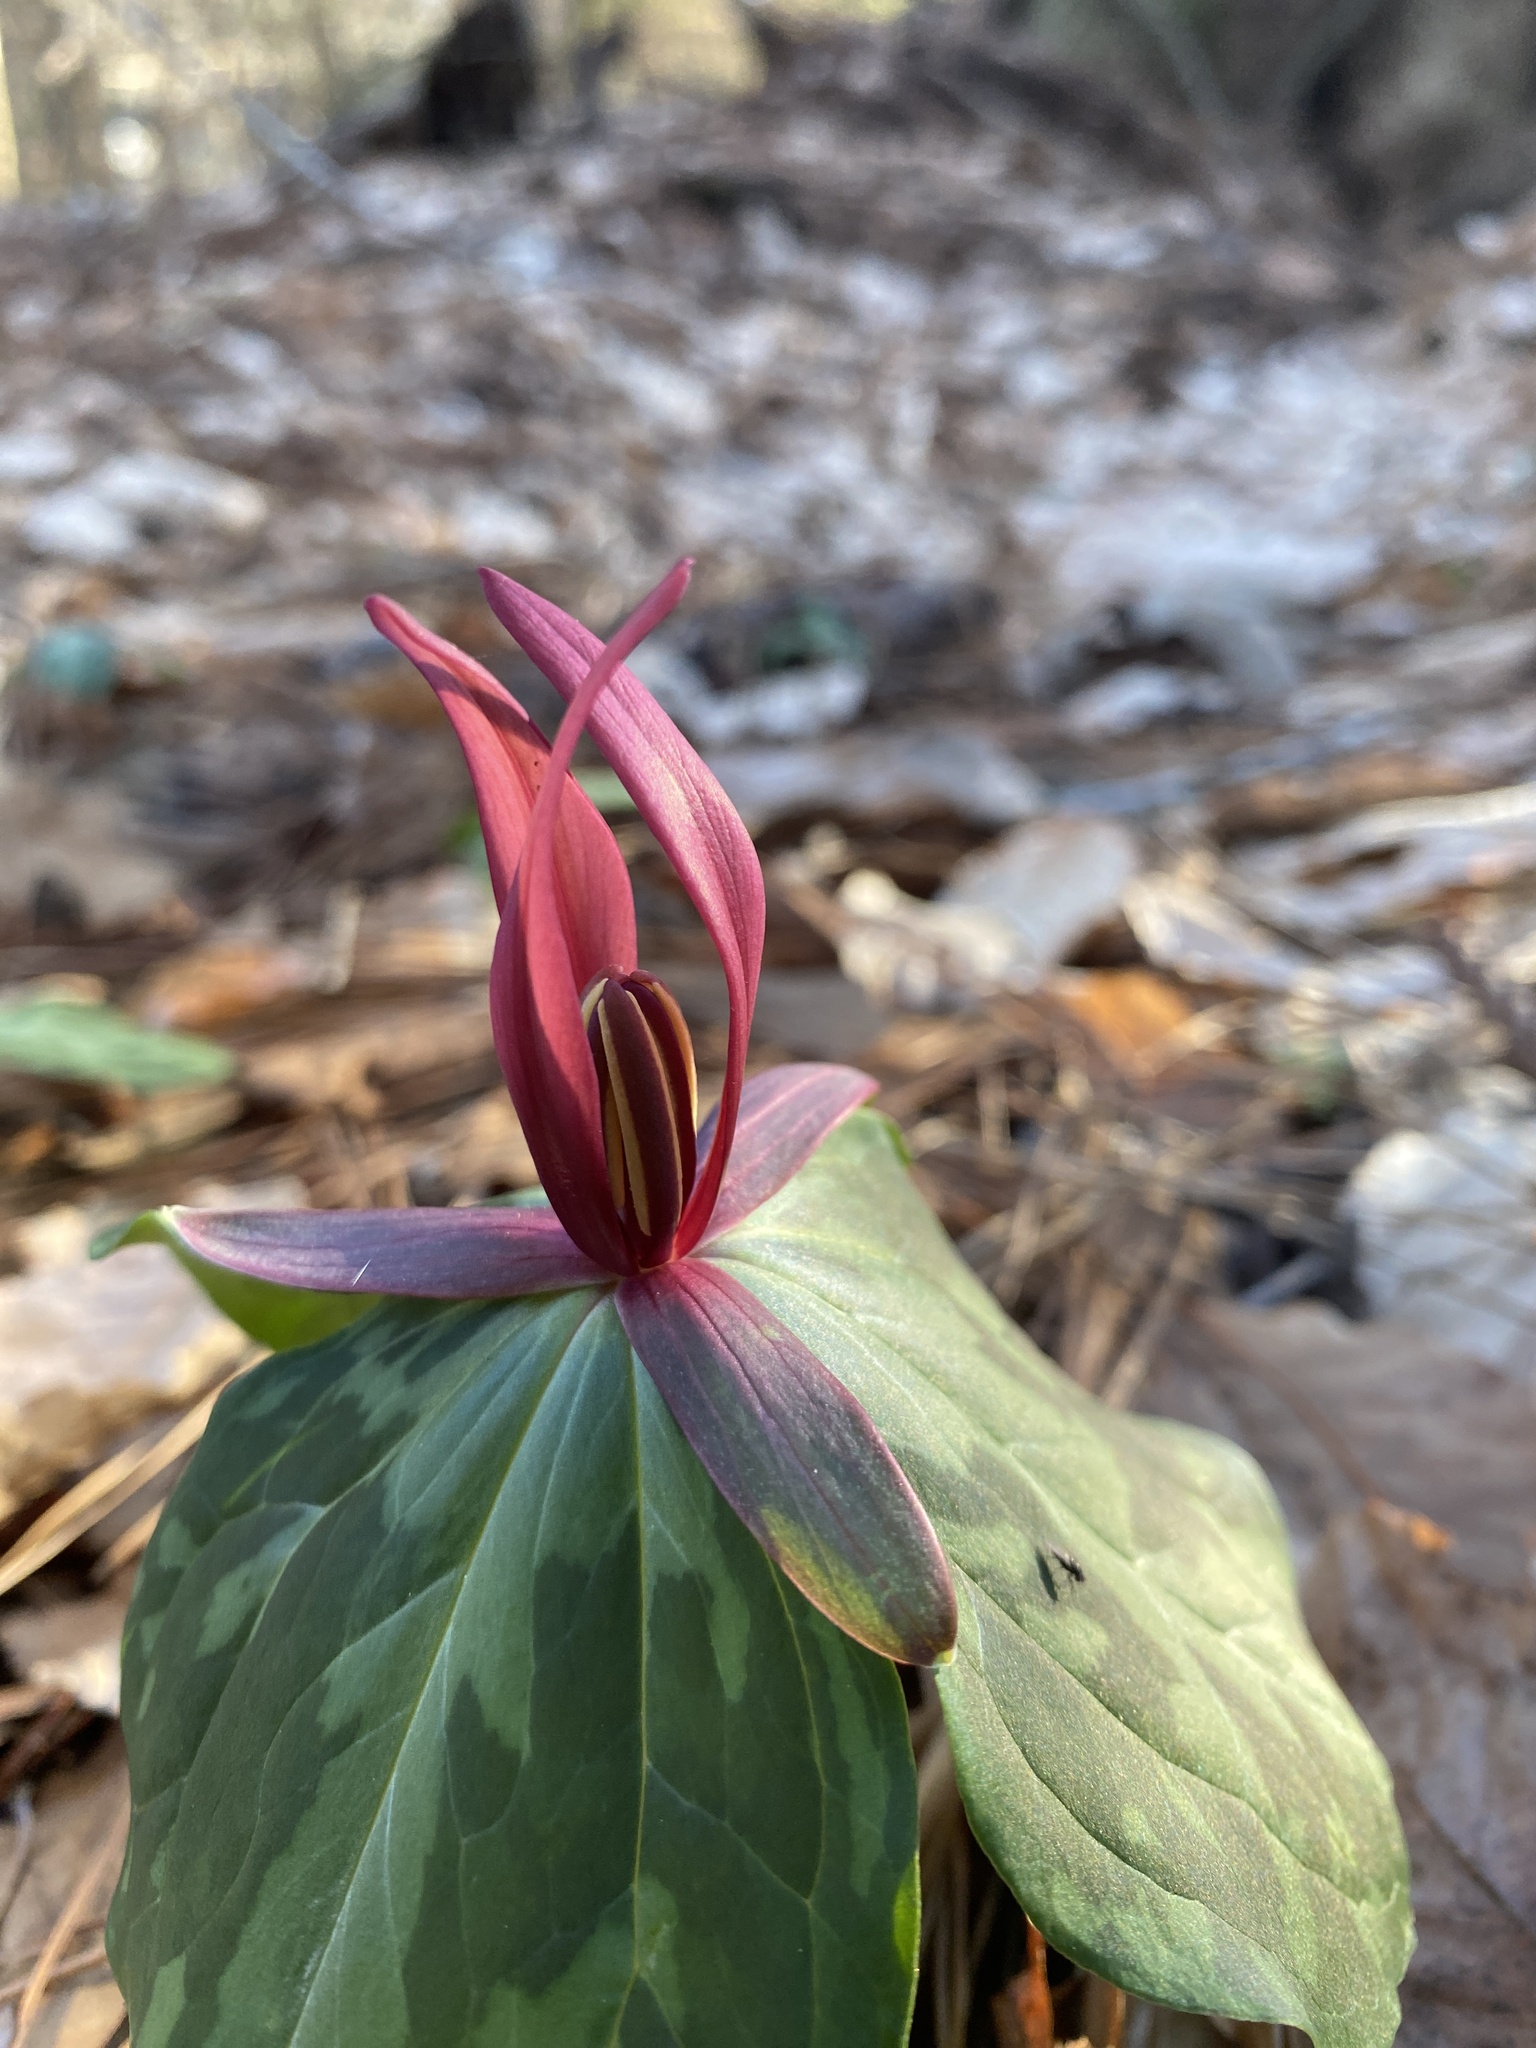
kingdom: Plantae
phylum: Tracheophyta
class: Liliopsida
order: Liliales
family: Melanthiaceae
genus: Trillium
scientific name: Trillium foetidissimum
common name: Mississippi river trillium
